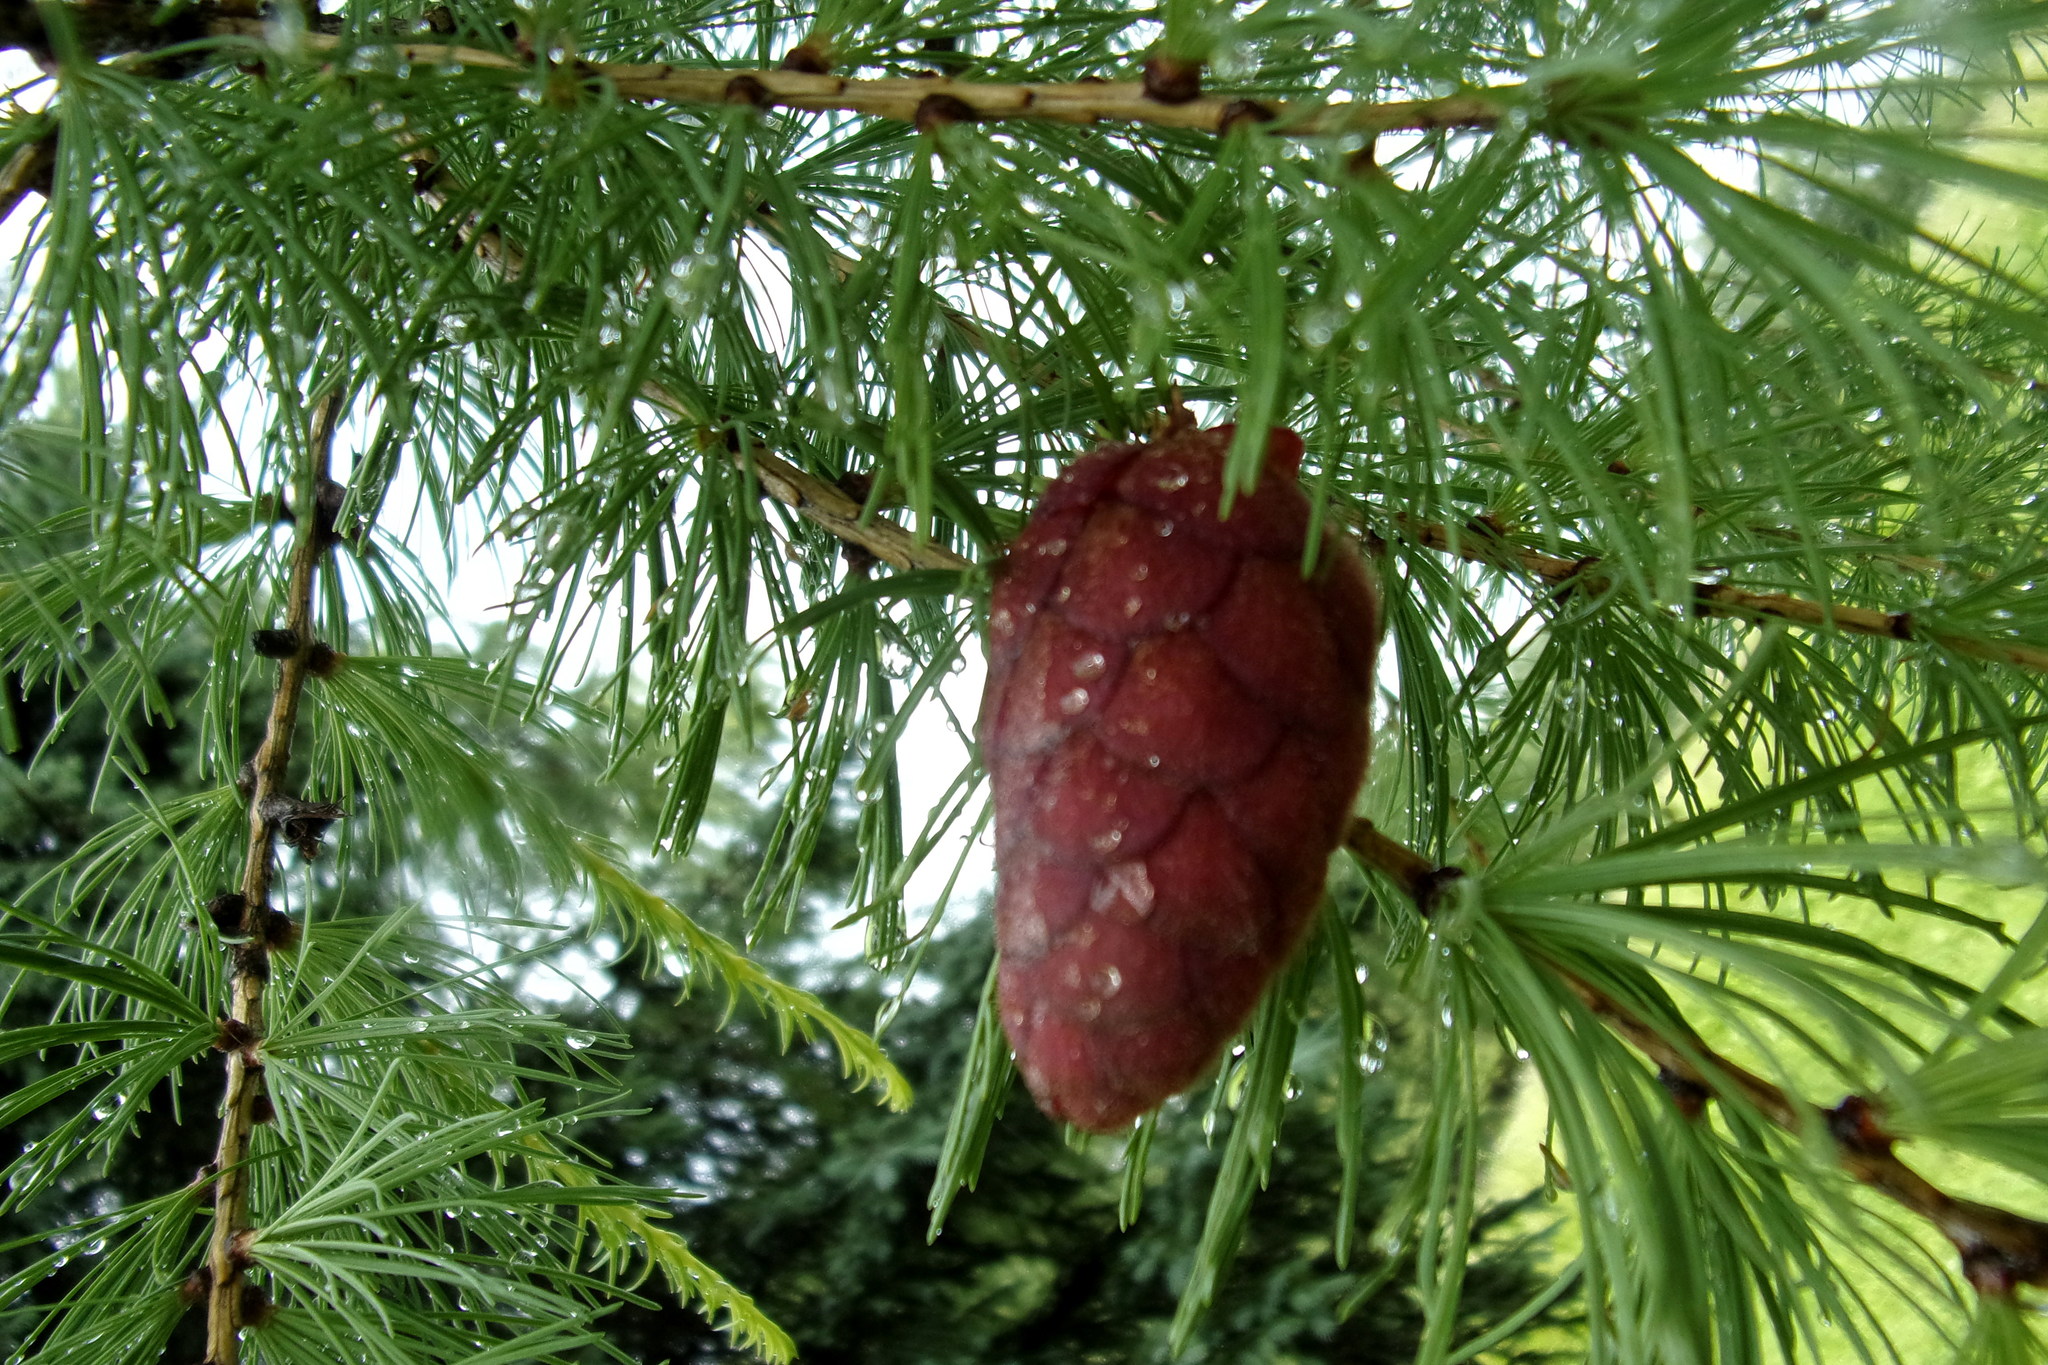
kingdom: Plantae
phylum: Tracheophyta
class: Pinopsida
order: Pinales
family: Pinaceae
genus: Larix
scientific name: Larix sibirica
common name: Siberian larch
